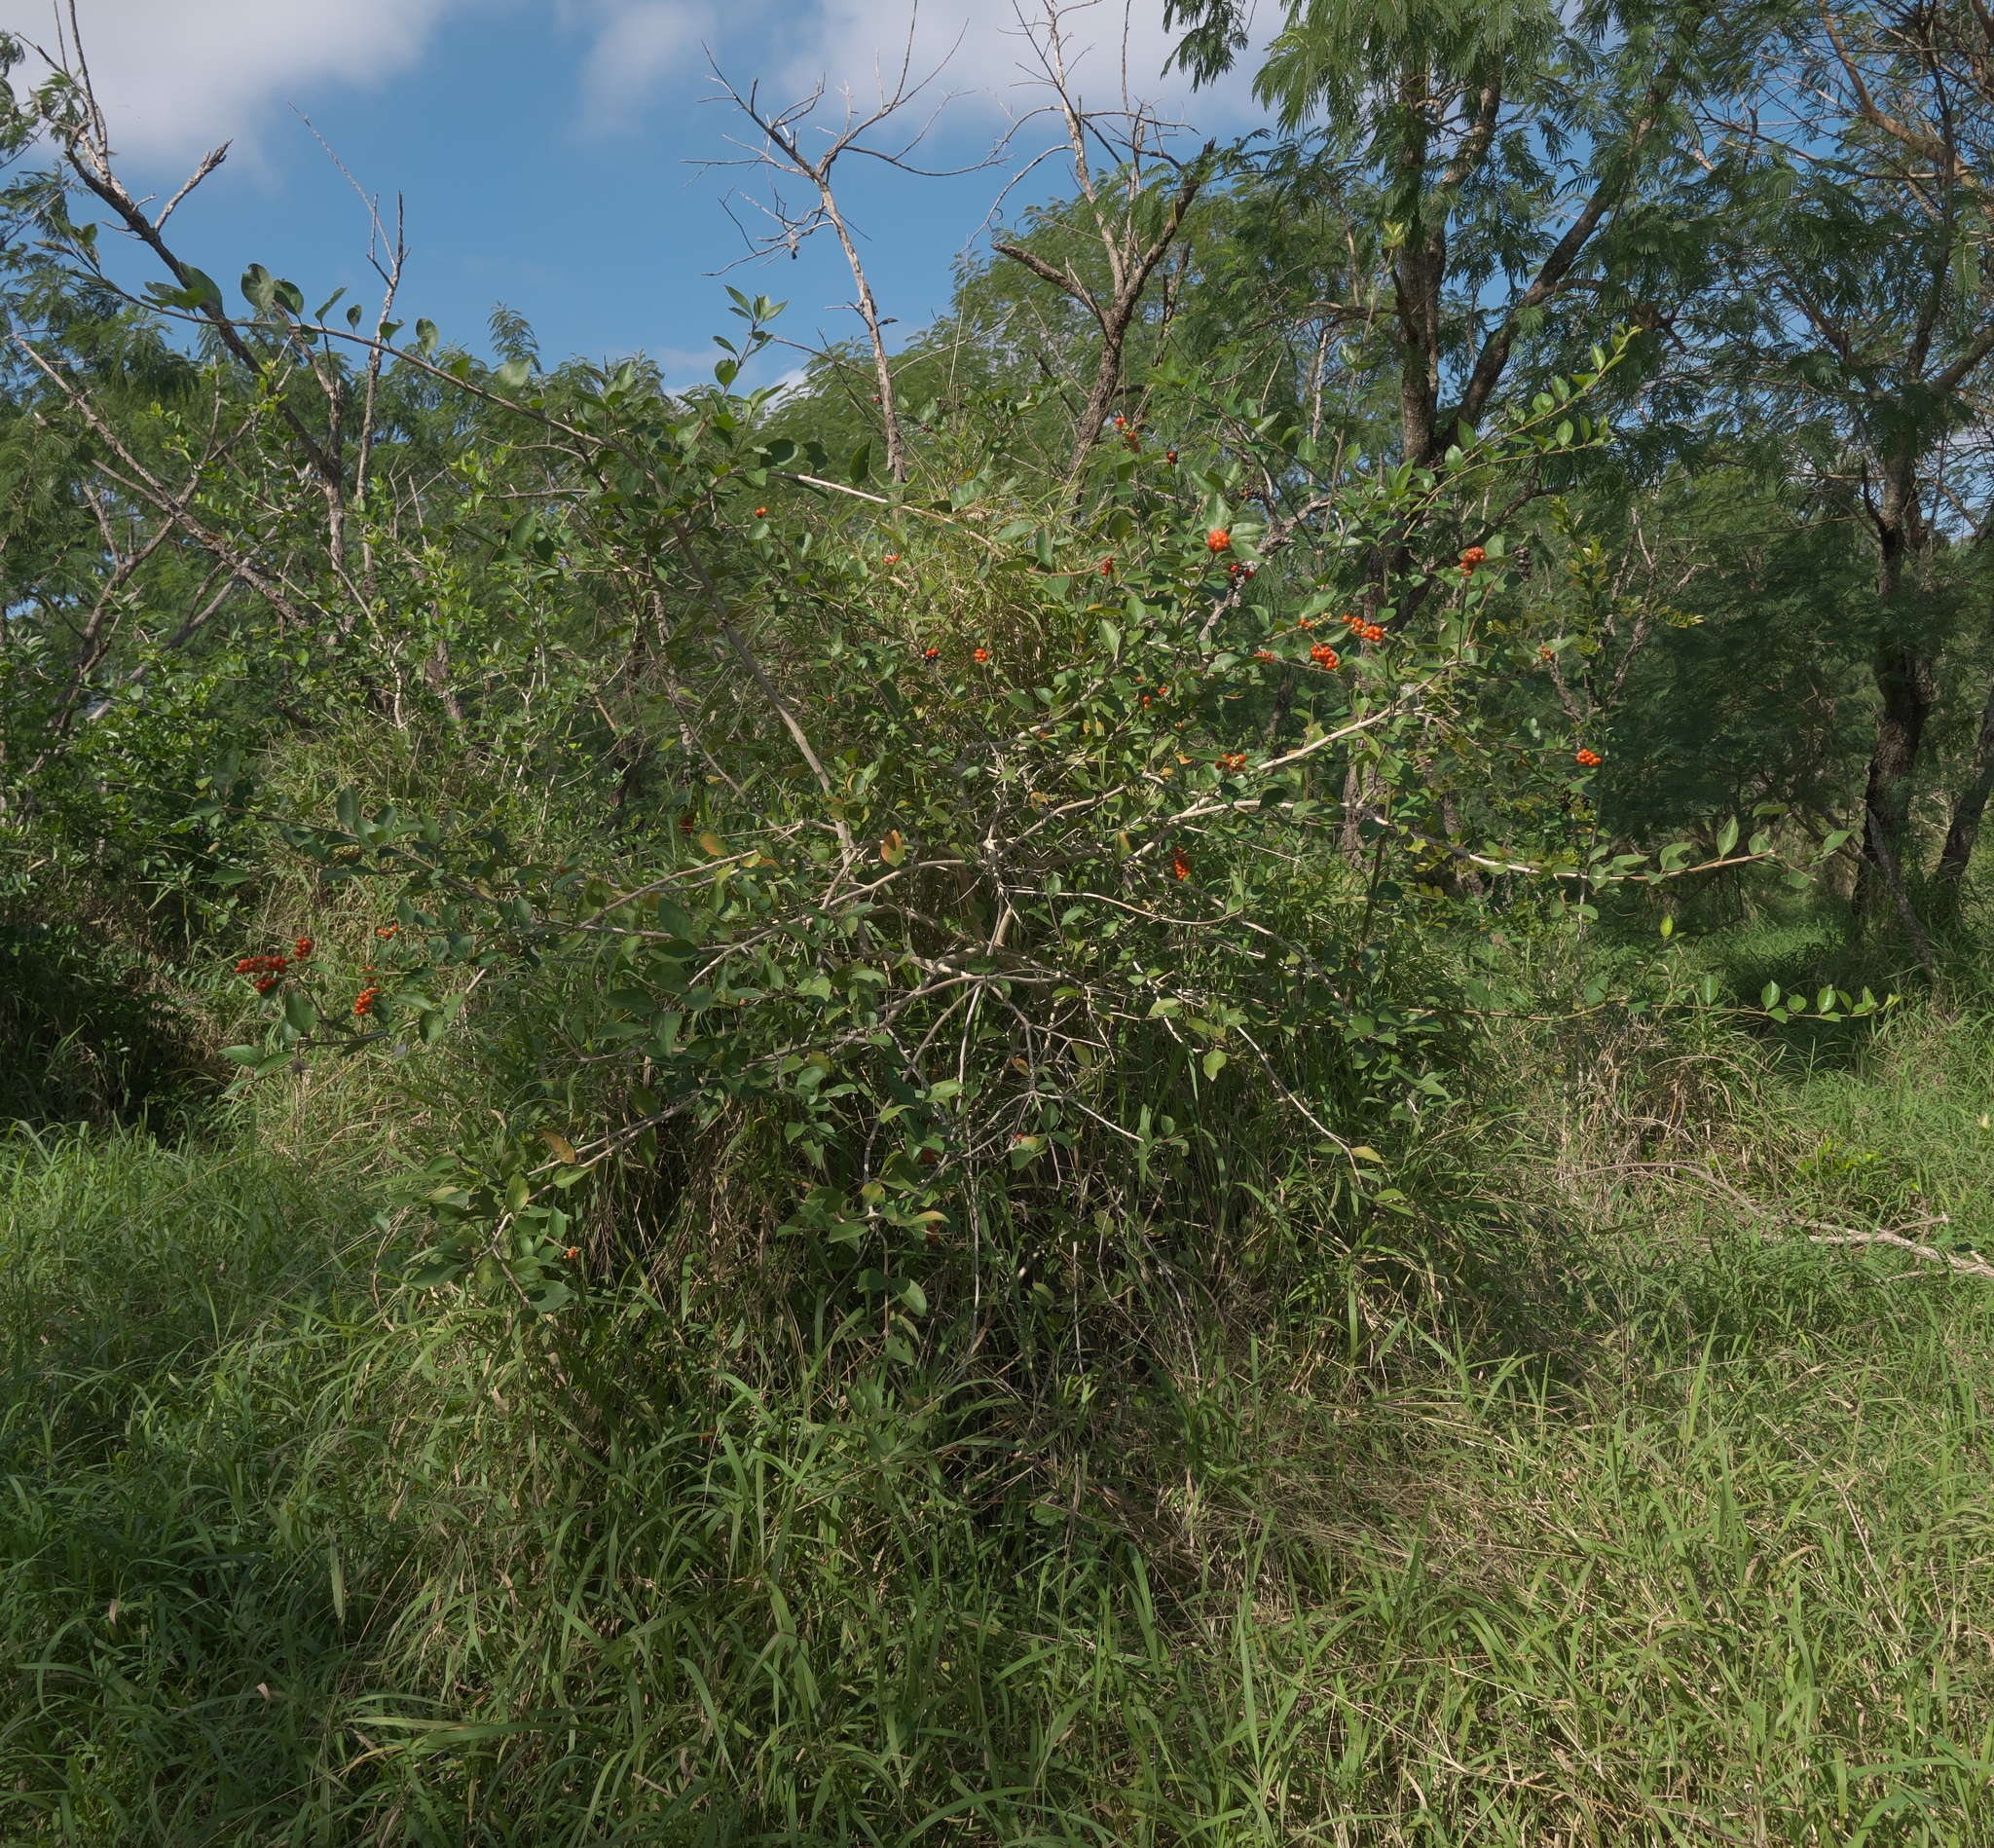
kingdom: Plantae
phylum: Tracheophyta
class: Magnoliopsida
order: Lamiales
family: Verbenaceae
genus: Citharexylum
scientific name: Citharexylum berlandieri
